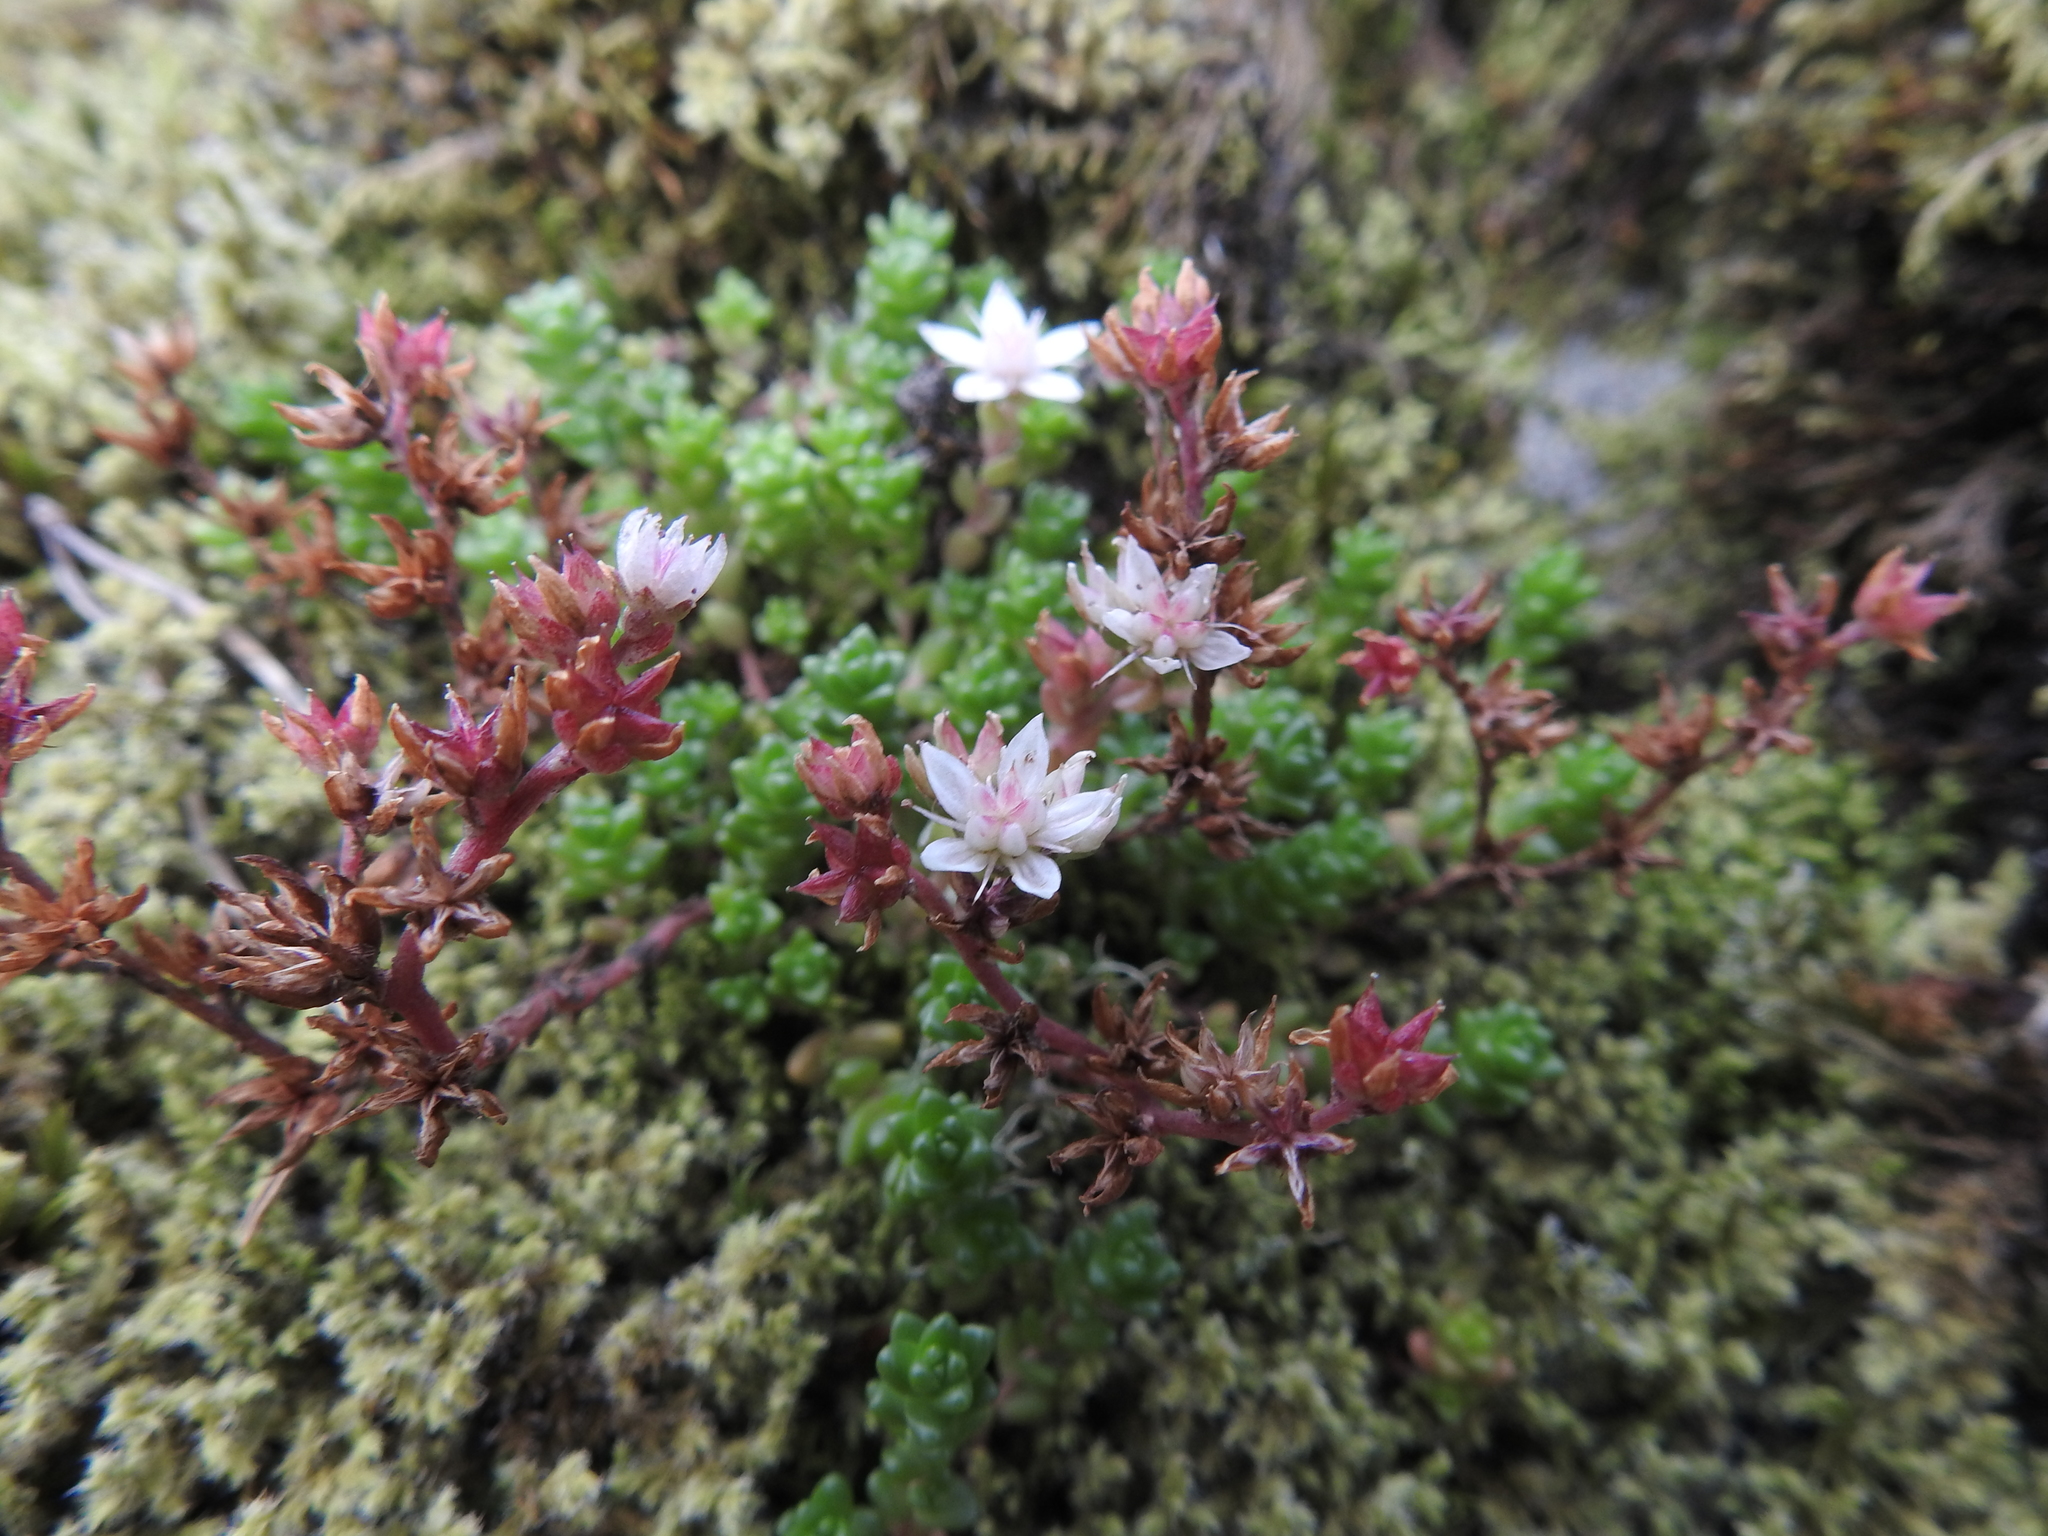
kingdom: Plantae
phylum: Tracheophyta
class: Magnoliopsida
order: Saxifragales
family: Crassulaceae
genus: Sedum
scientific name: Sedum anglicum
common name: English stonecrop
